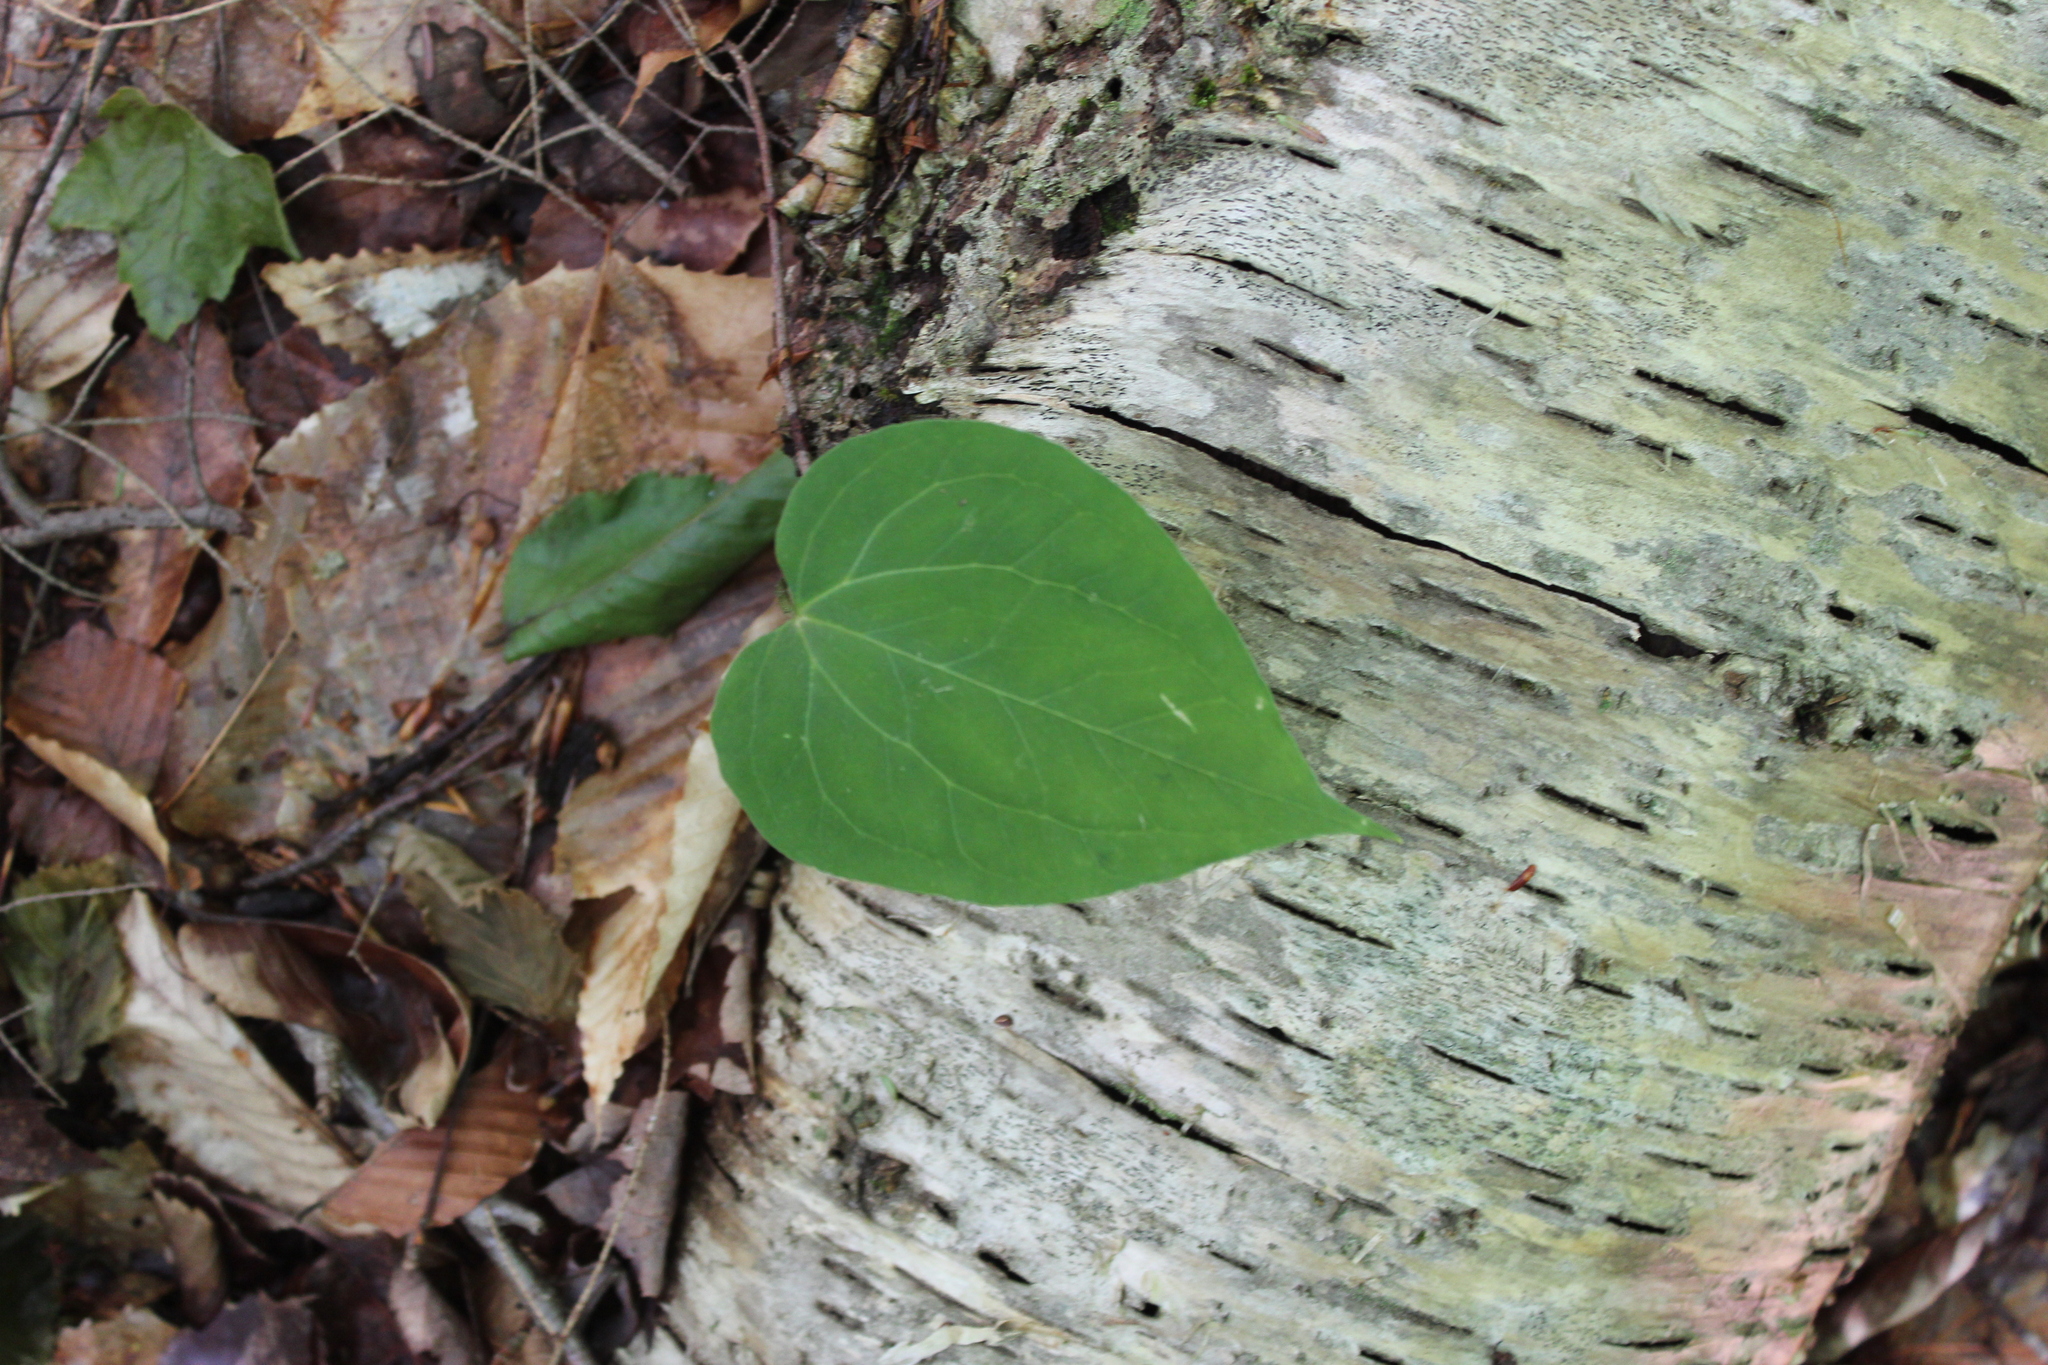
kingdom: Plantae
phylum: Tracheophyta
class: Liliopsida
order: Liliales
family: Melanthiaceae
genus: Trillium
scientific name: Trillium undulatum
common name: Paint trillium
